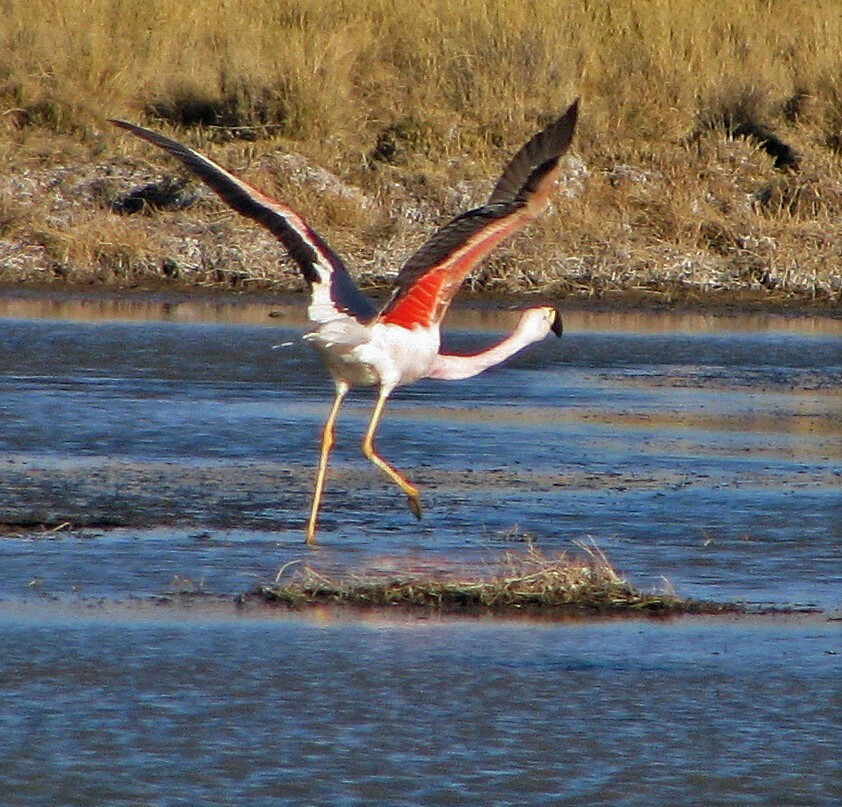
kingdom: Animalia
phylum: Chordata
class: Aves
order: Phoenicopteriformes
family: Phoenicopteridae
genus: Phoenicoparrus
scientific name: Phoenicoparrus andinus
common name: Andean flamingo
